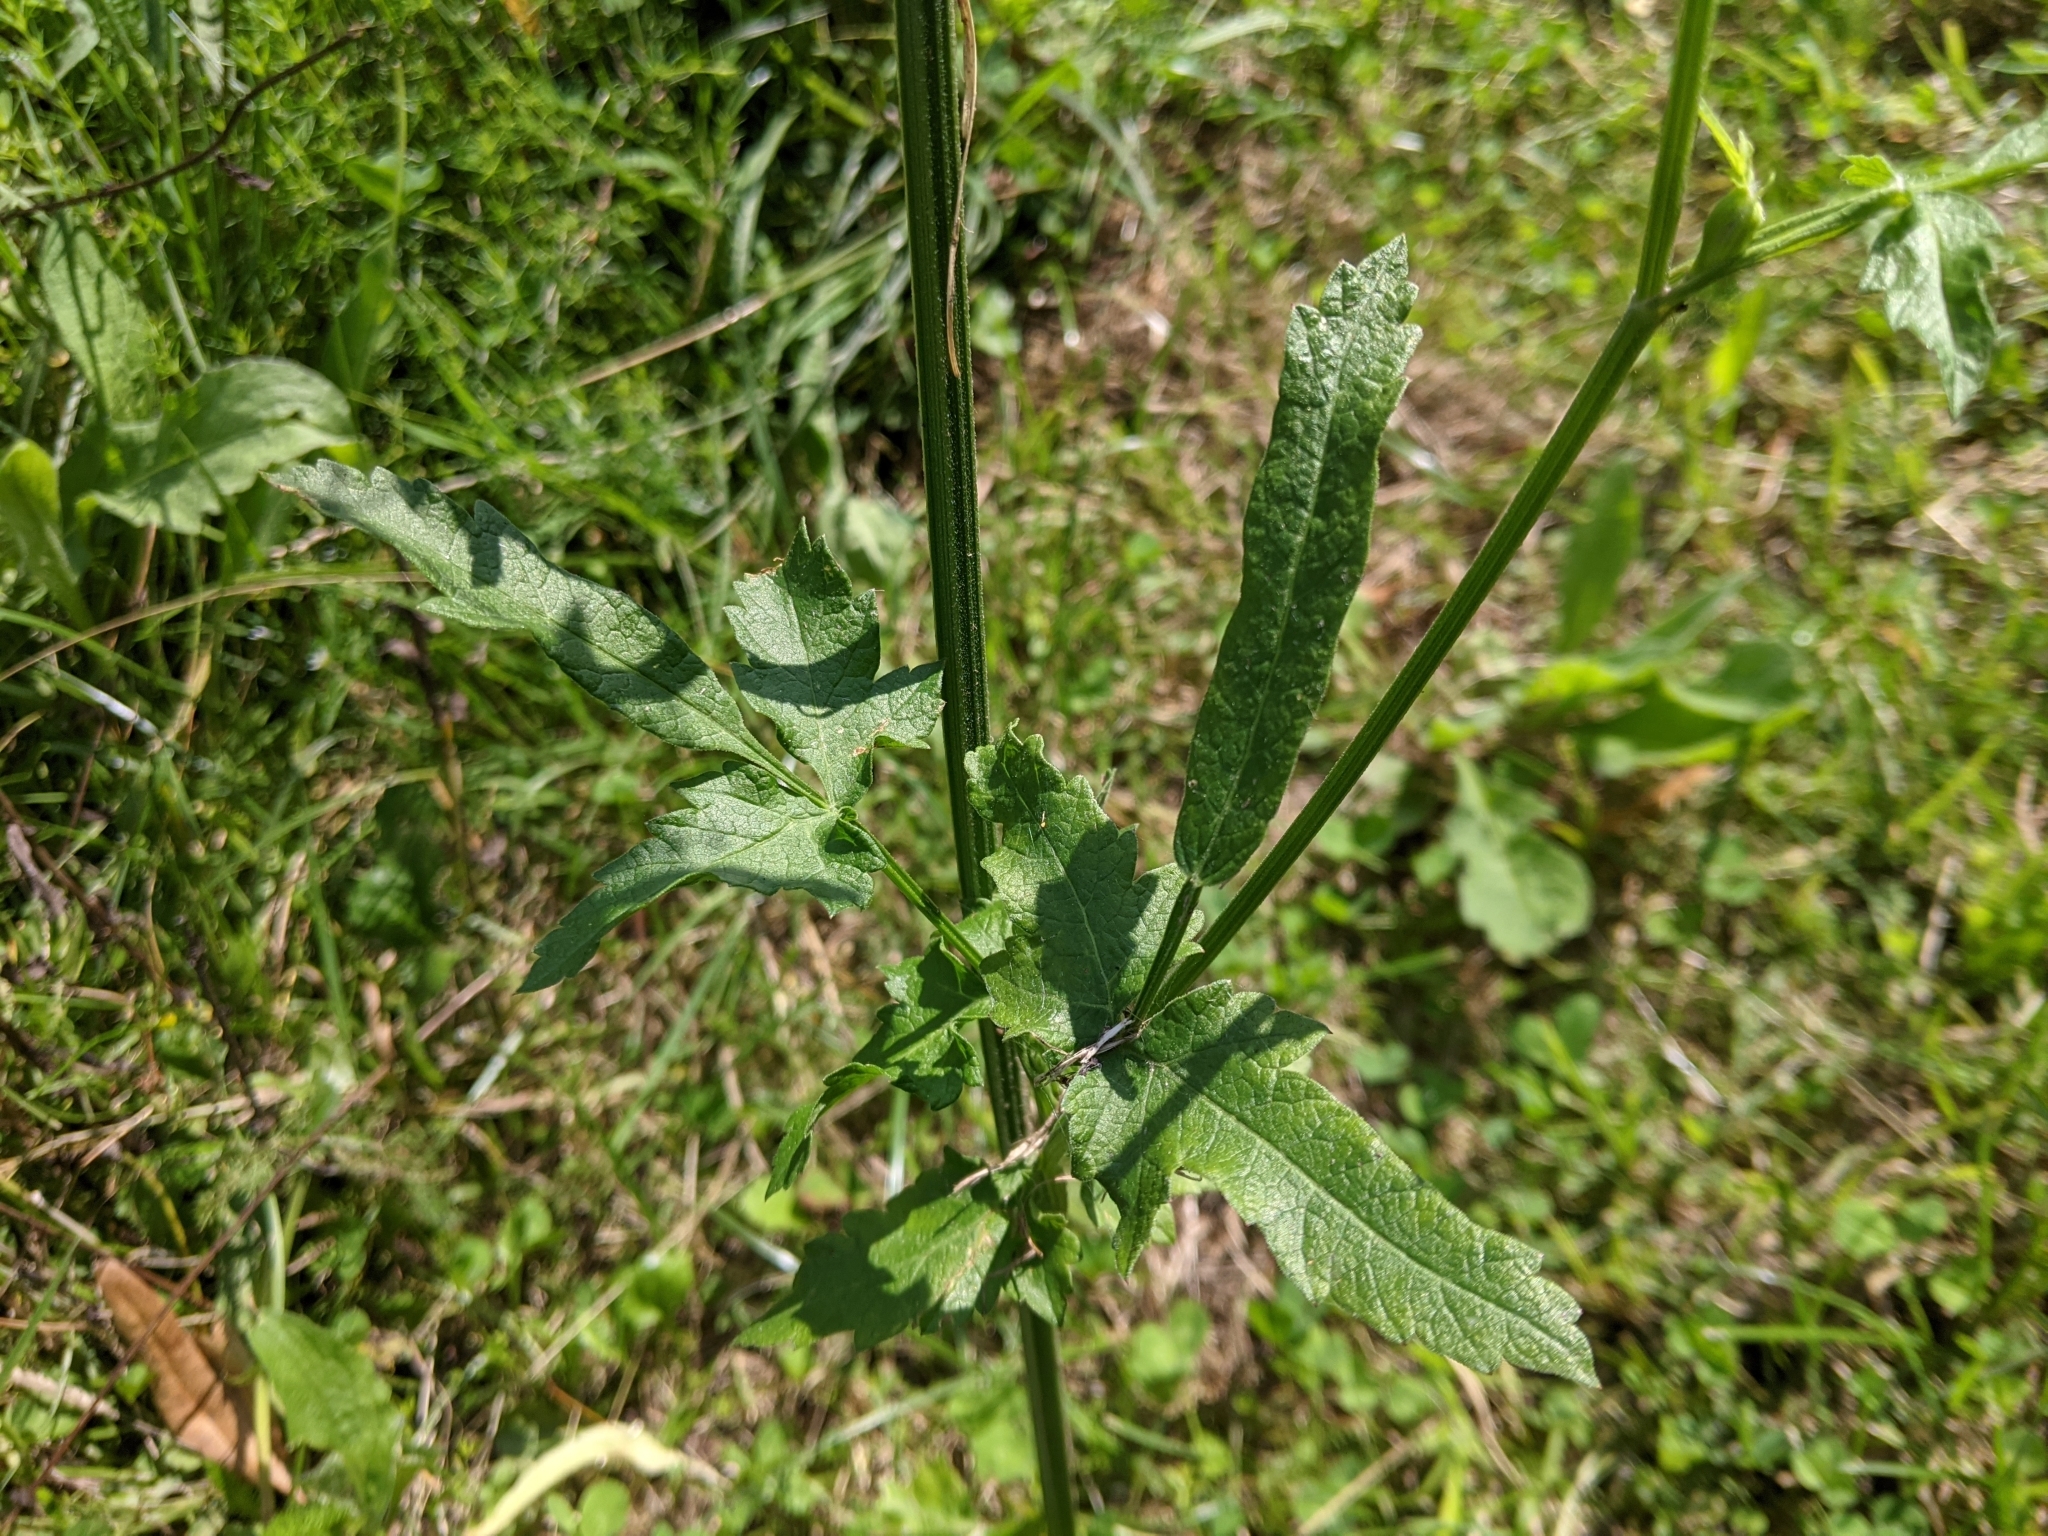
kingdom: Plantae
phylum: Tracheophyta
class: Magnoliopsida
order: Apiales
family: Apiaceae
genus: Pastinaca
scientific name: Pastinaca sativa
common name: Wild parsnip
